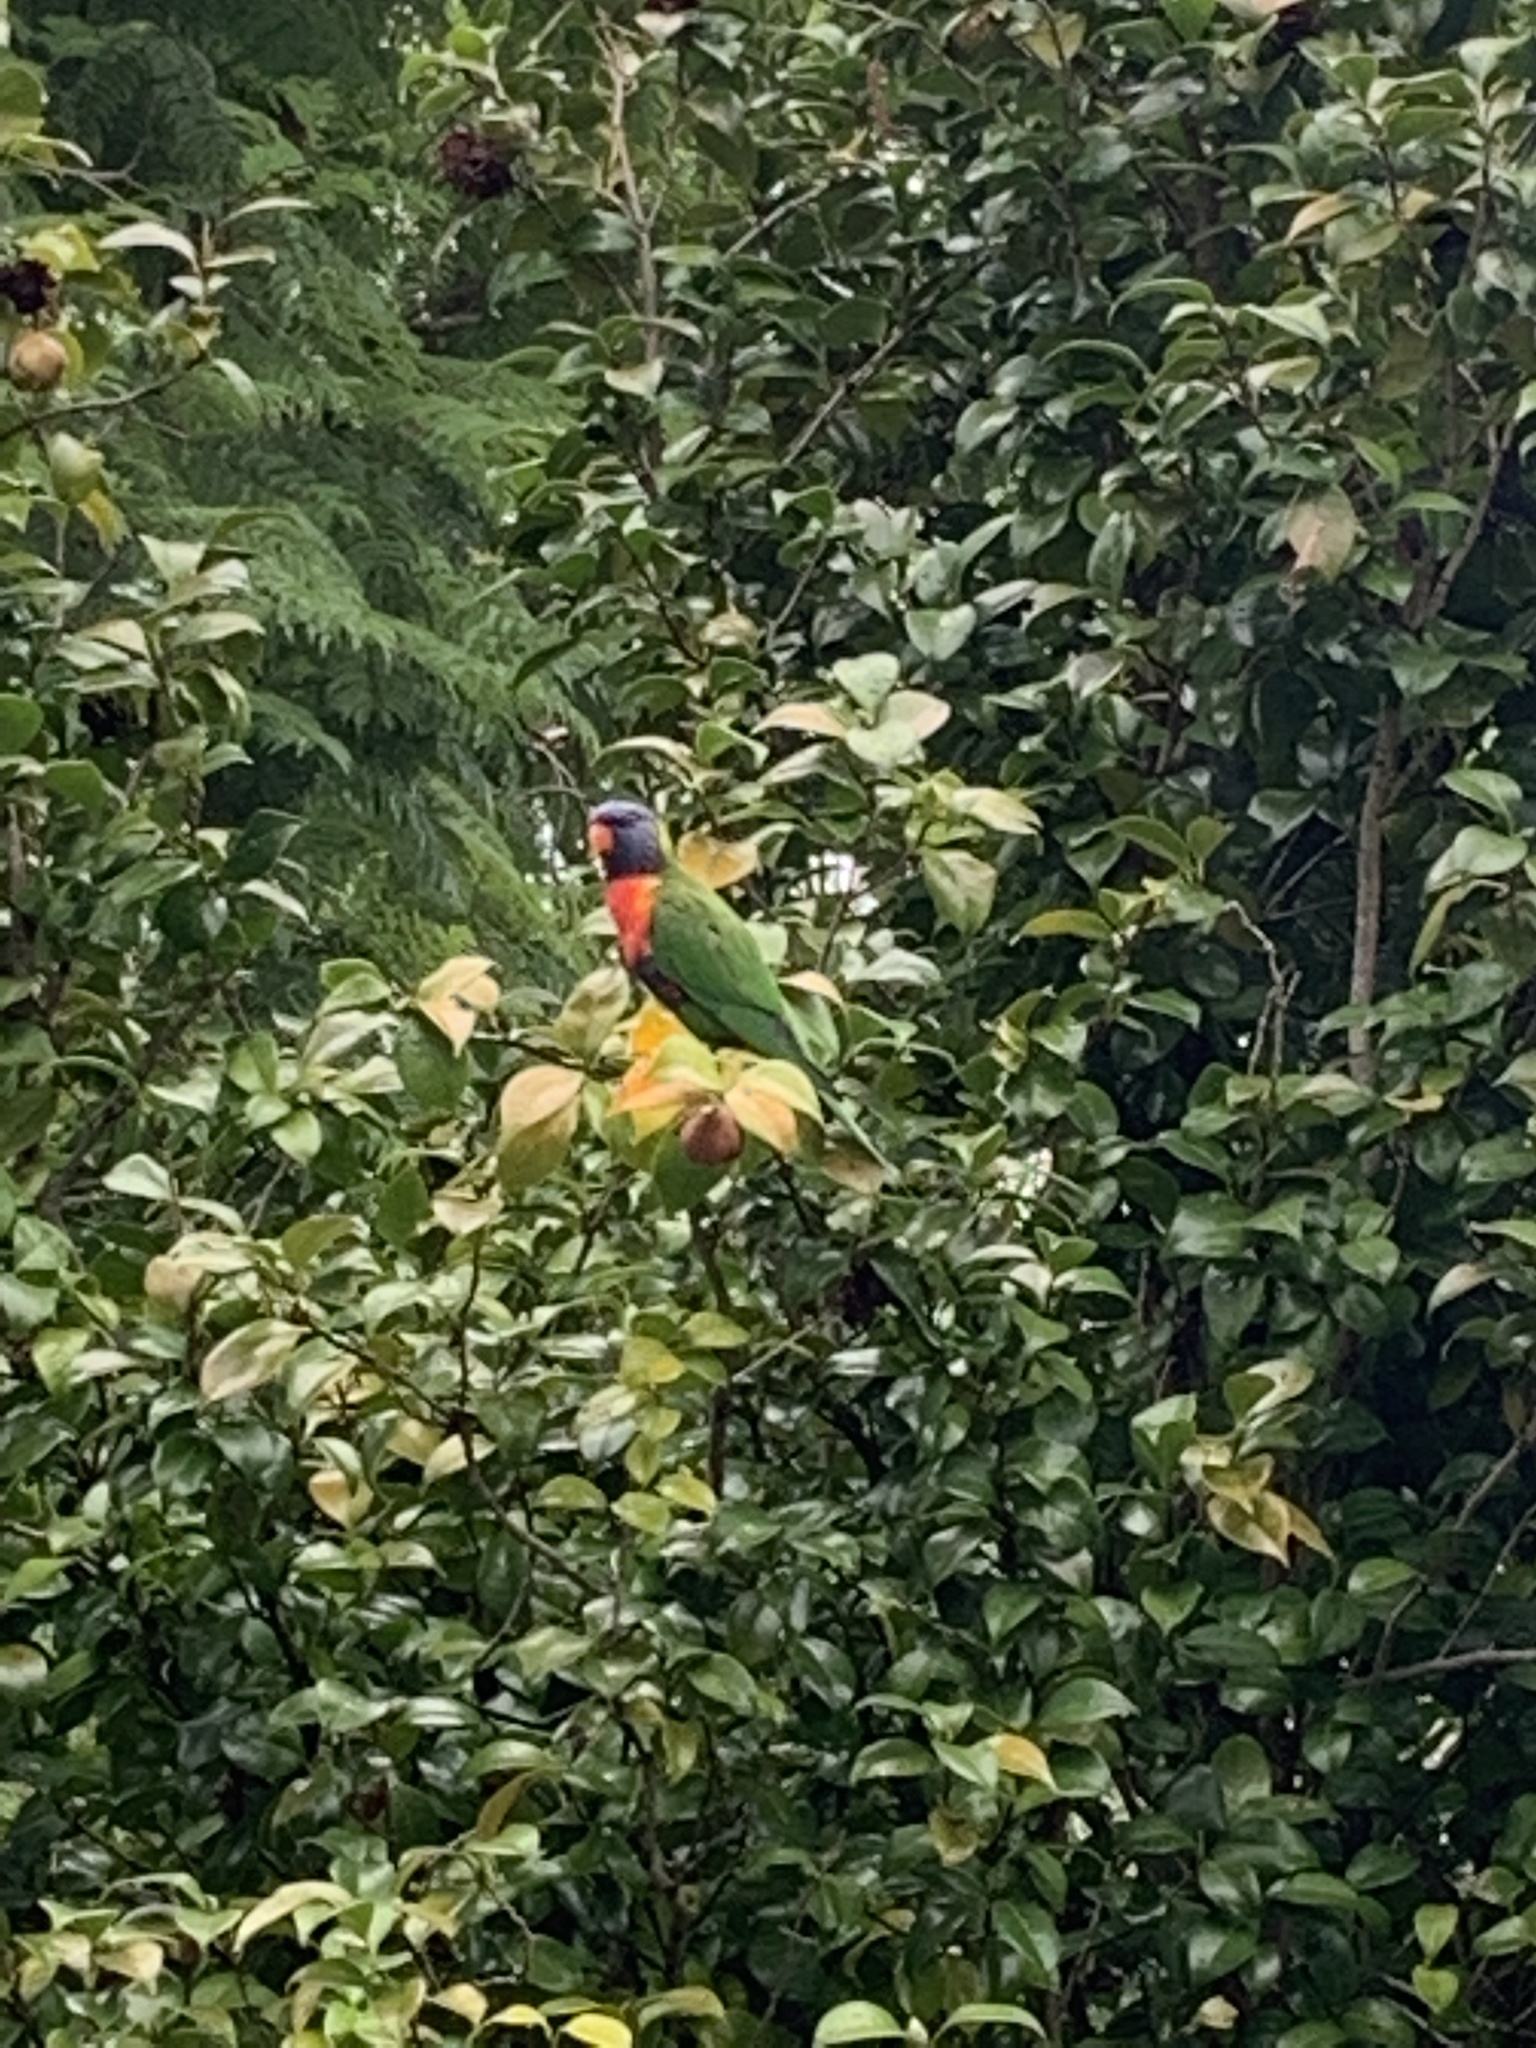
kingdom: Animalia
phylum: Chordata
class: Aves
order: Psittaciformes
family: Psittacidae
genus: Trichoglossus
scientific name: Trichoglossus haematodus
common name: Coconut lorikeet
